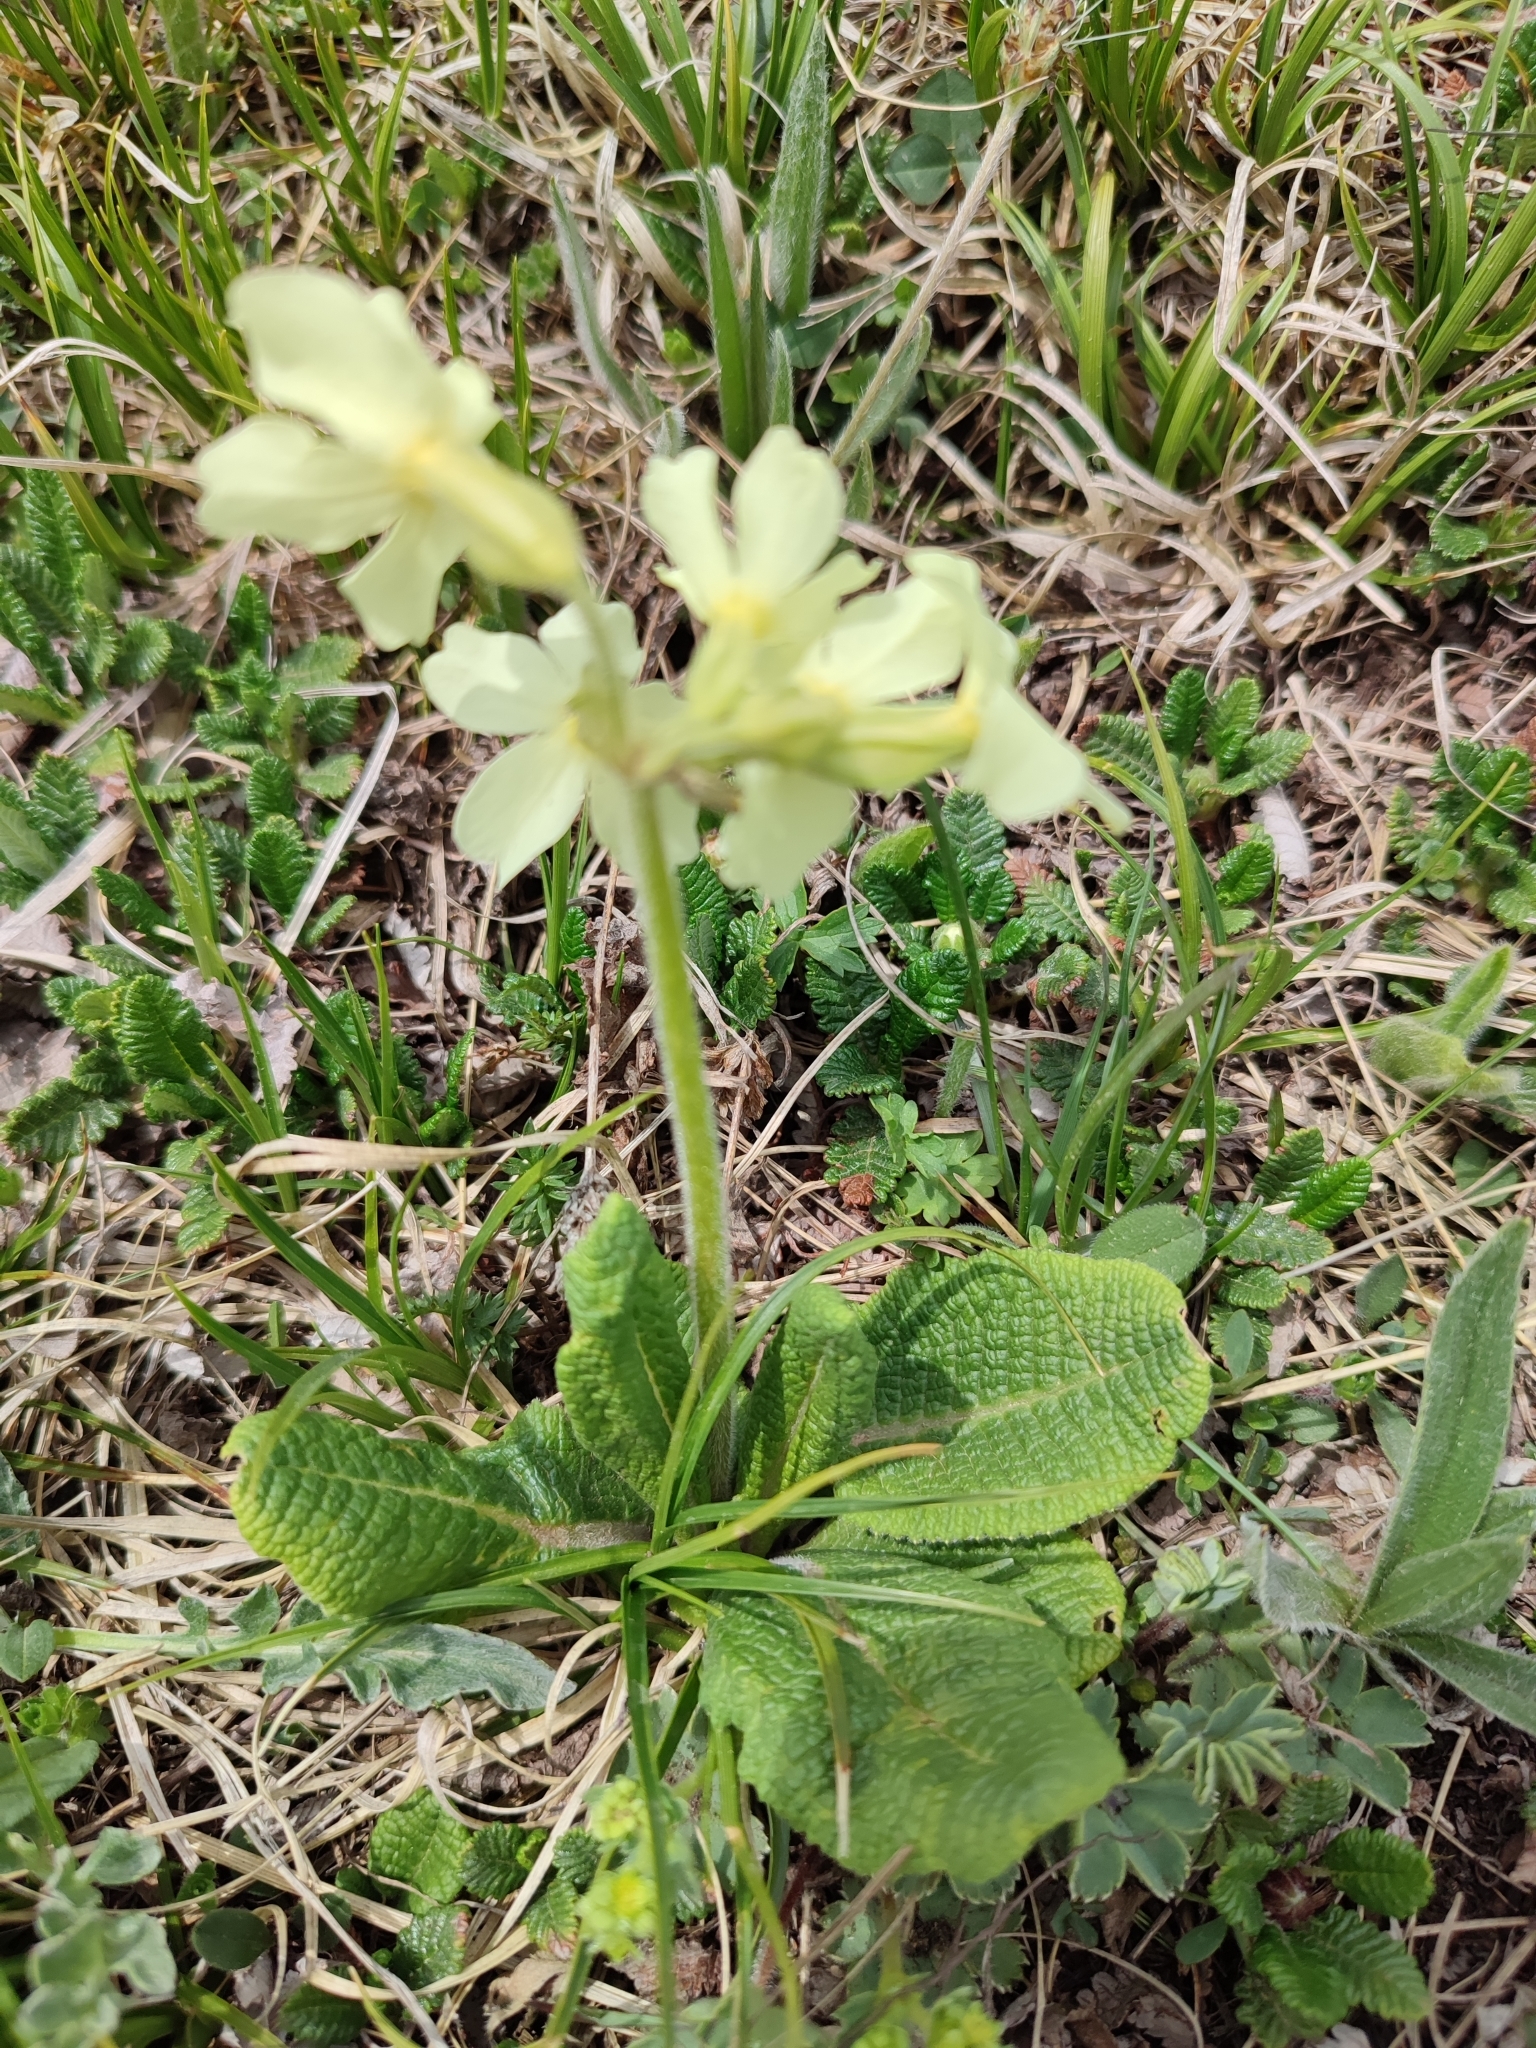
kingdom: Plantae
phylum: Tracheophyta
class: Magnoliopsida
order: Ericales
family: Primulaceae
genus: Primula
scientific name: Primula ruprechtii
